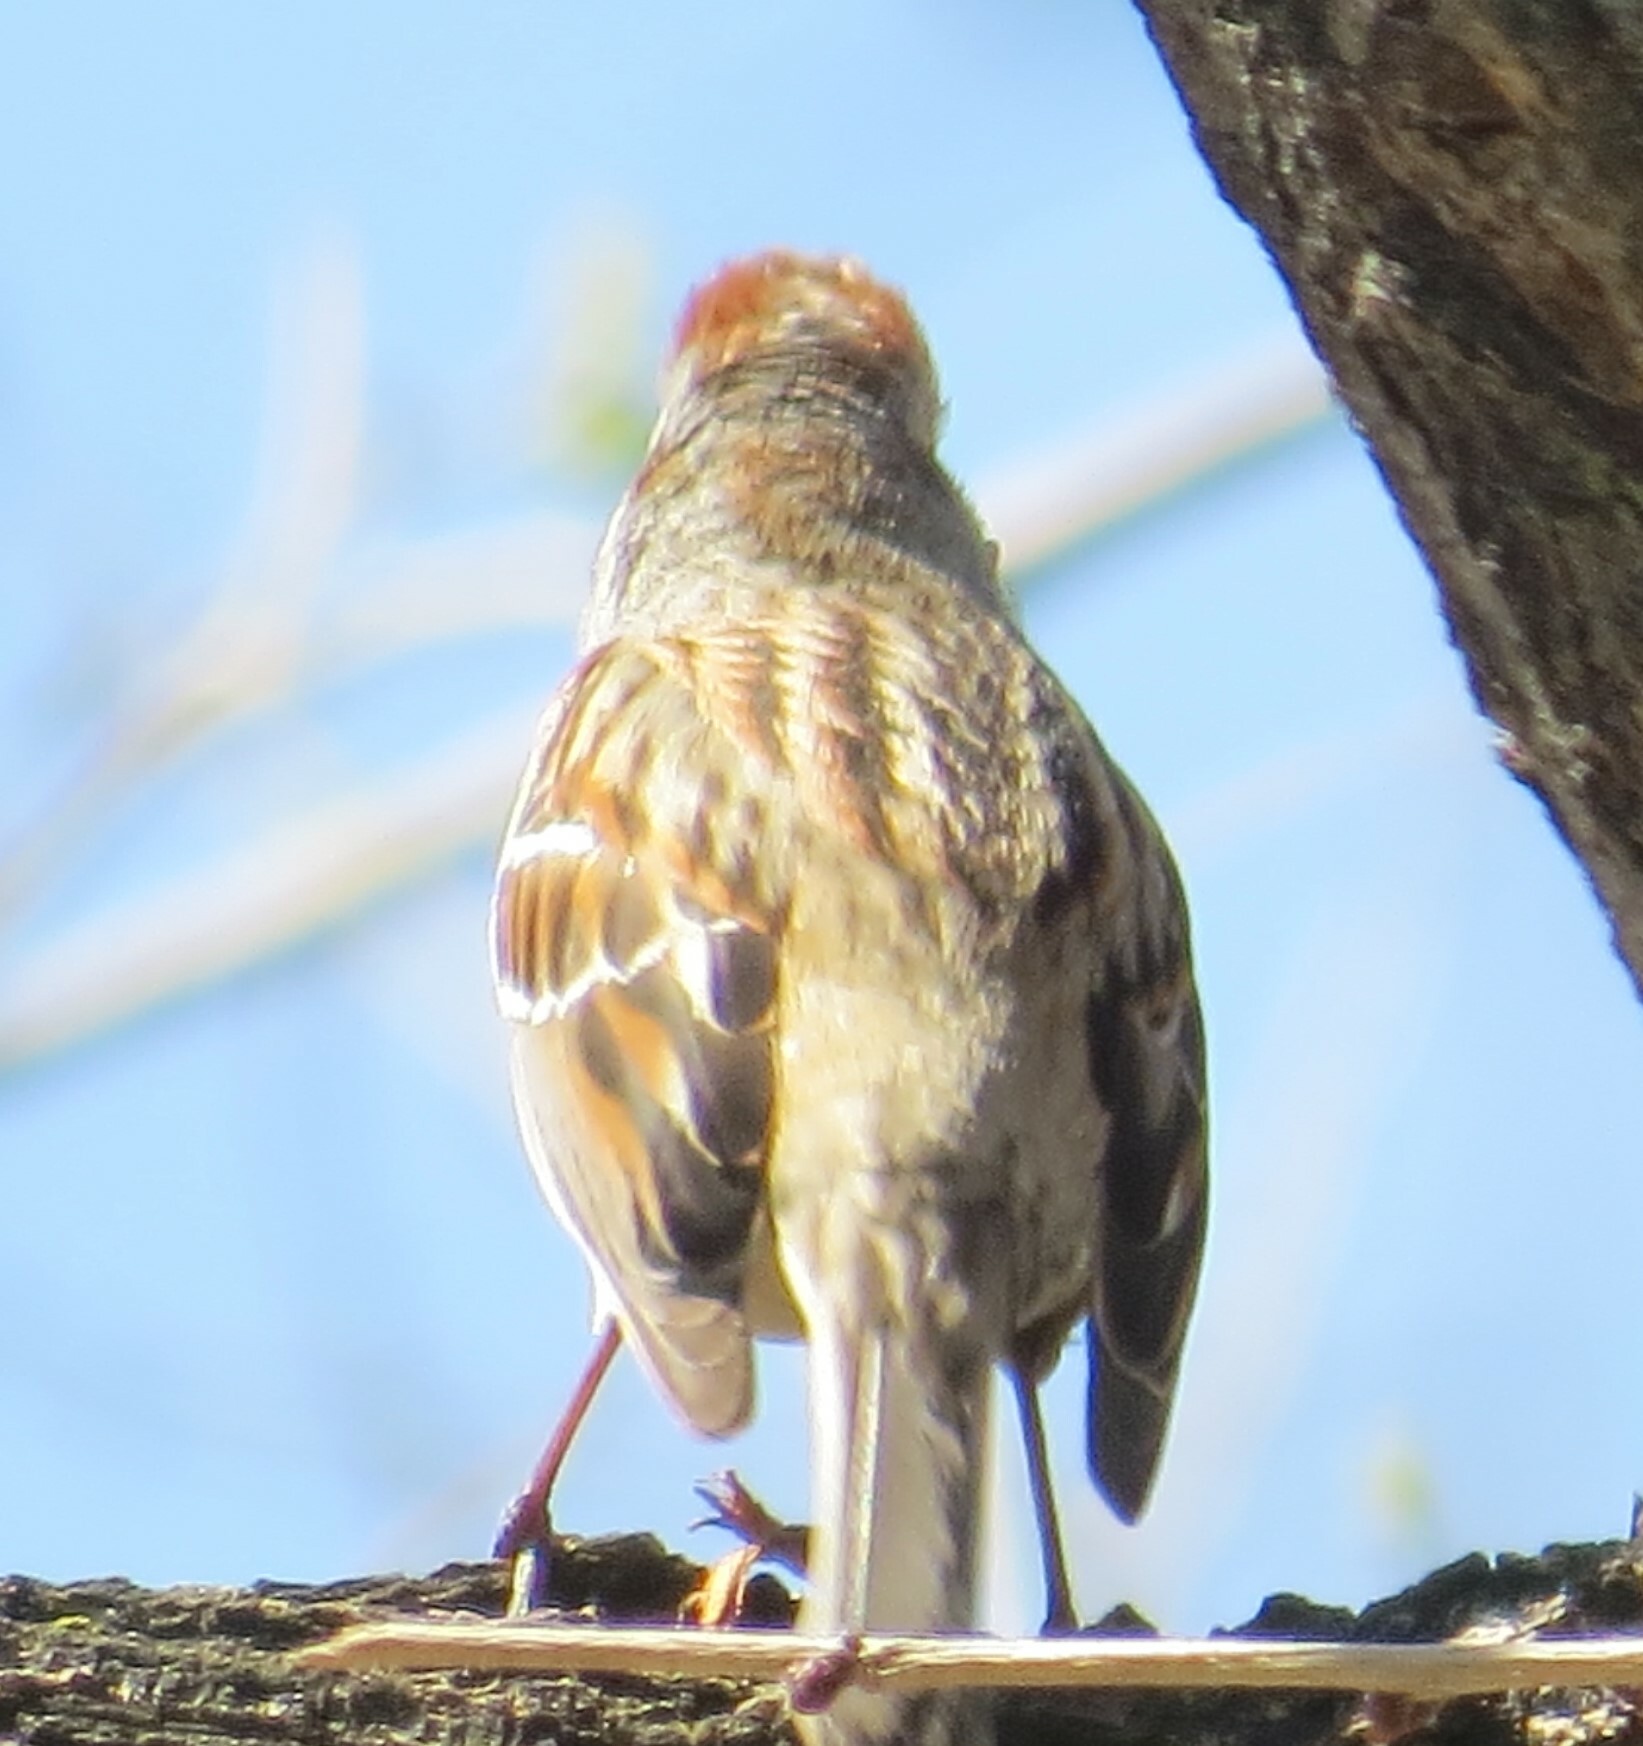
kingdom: Animalia
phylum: Chordata
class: Aves
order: Passeriformes
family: Passerellidae
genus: Spizelloides
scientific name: Spizelloides arborea
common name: American tree sparrow
